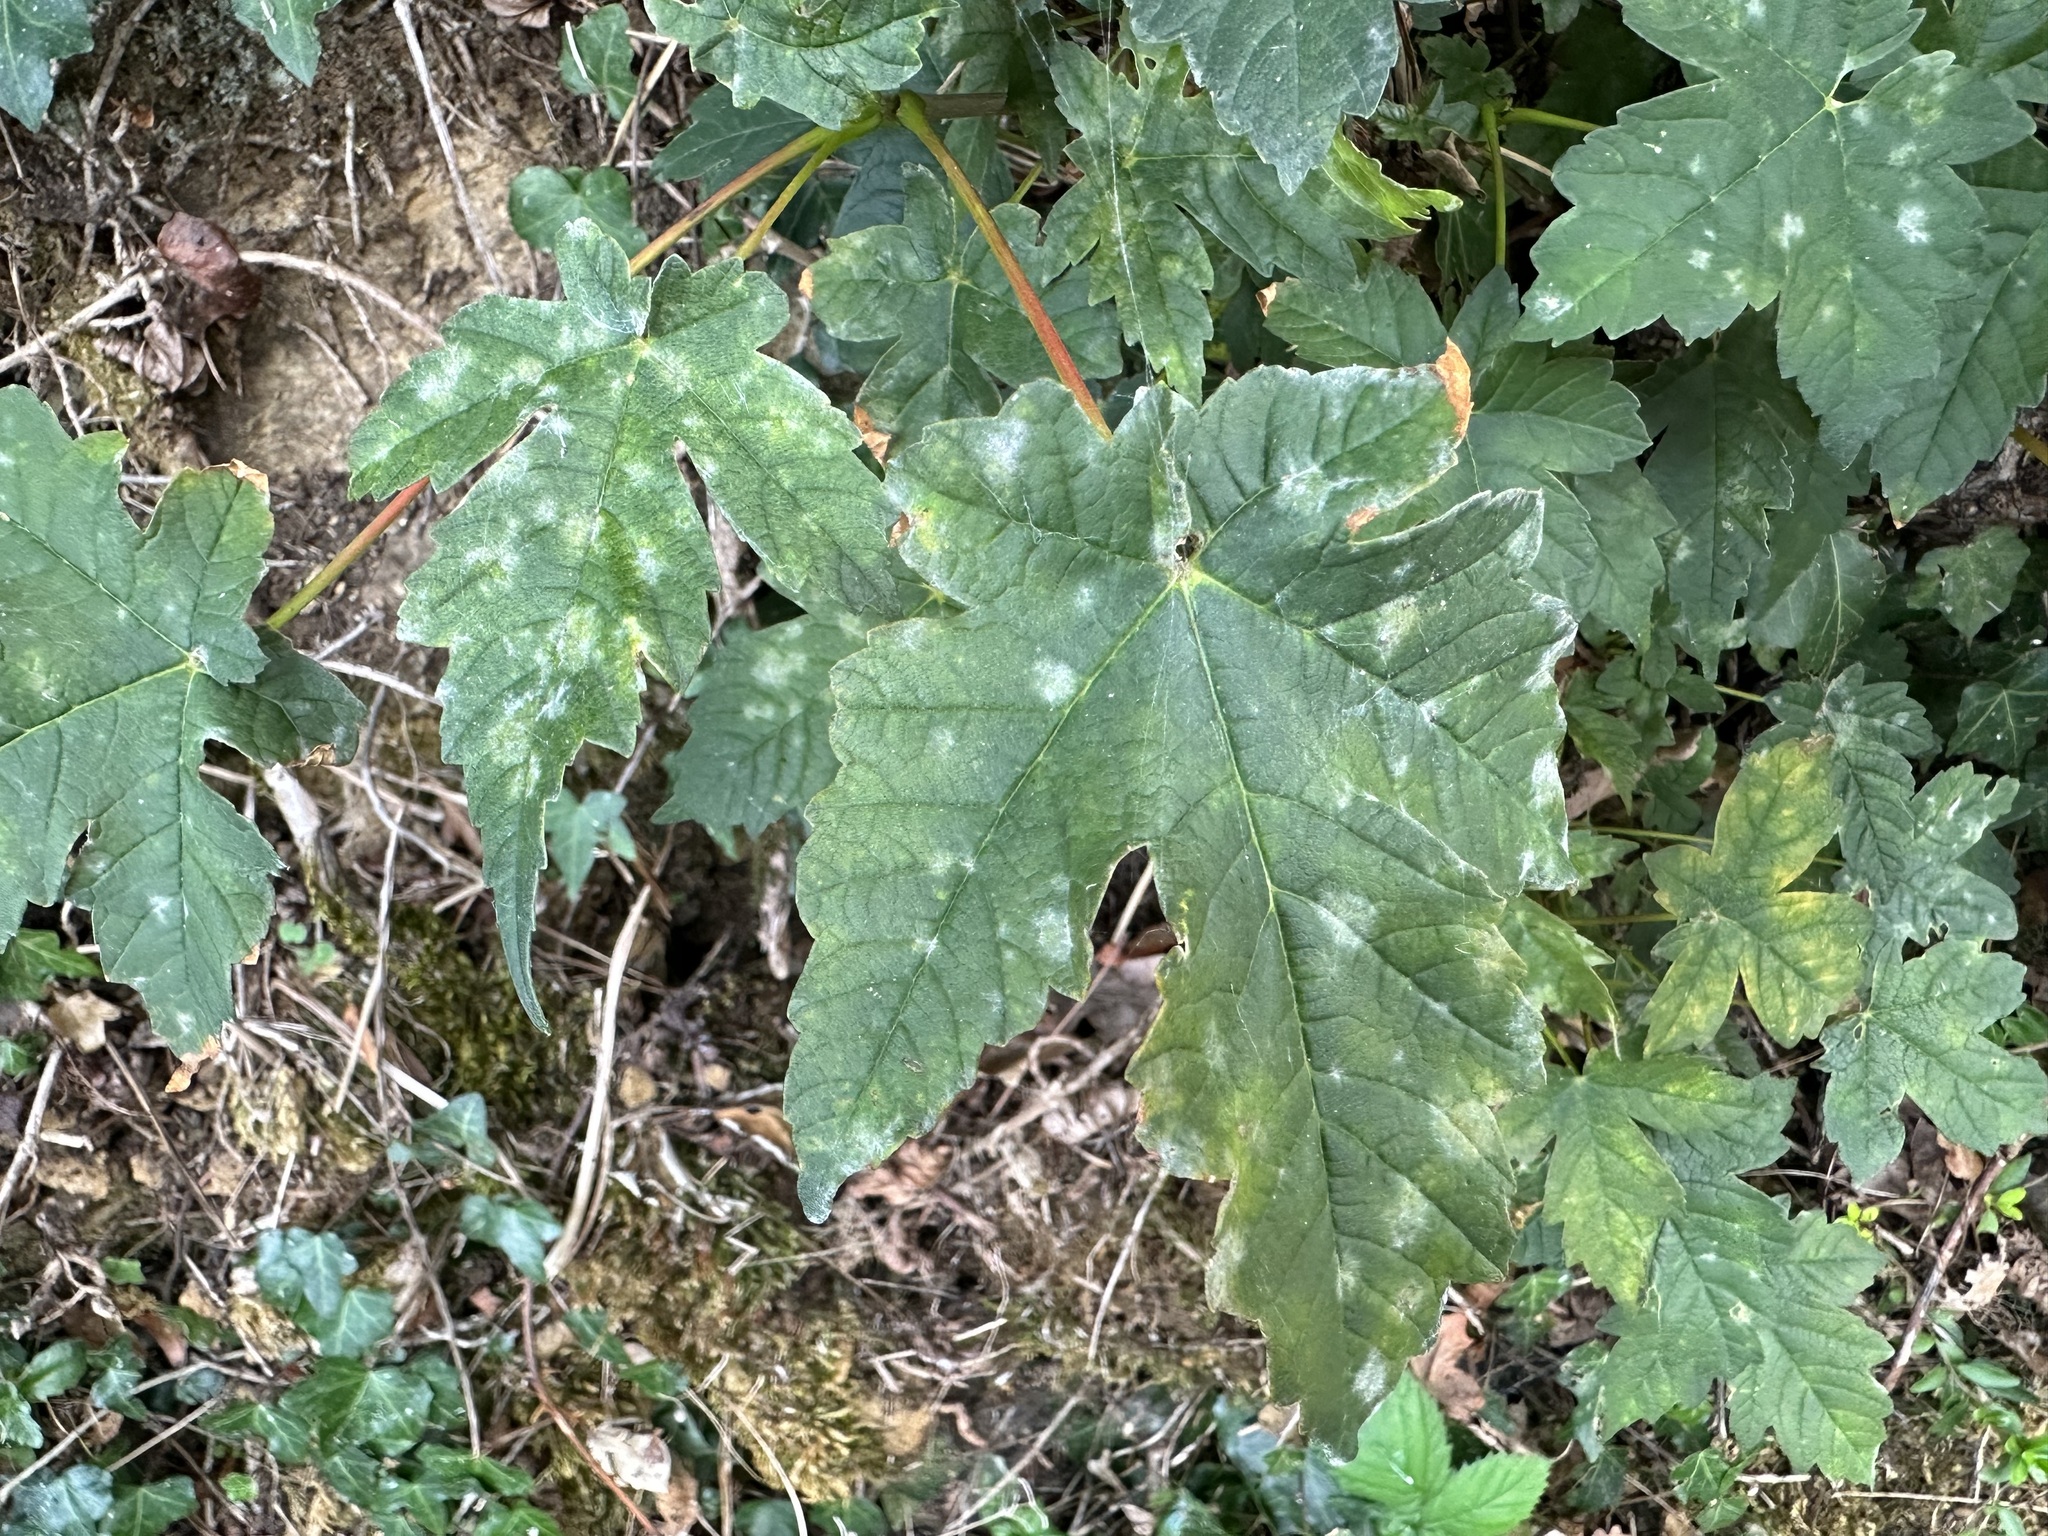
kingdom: Fungi
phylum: Ascomycota
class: Leotiomycetes
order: Helotiales
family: Erysiphaceae
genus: Sawadaea
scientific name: Sawadaea bicornis
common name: Maple mildew
